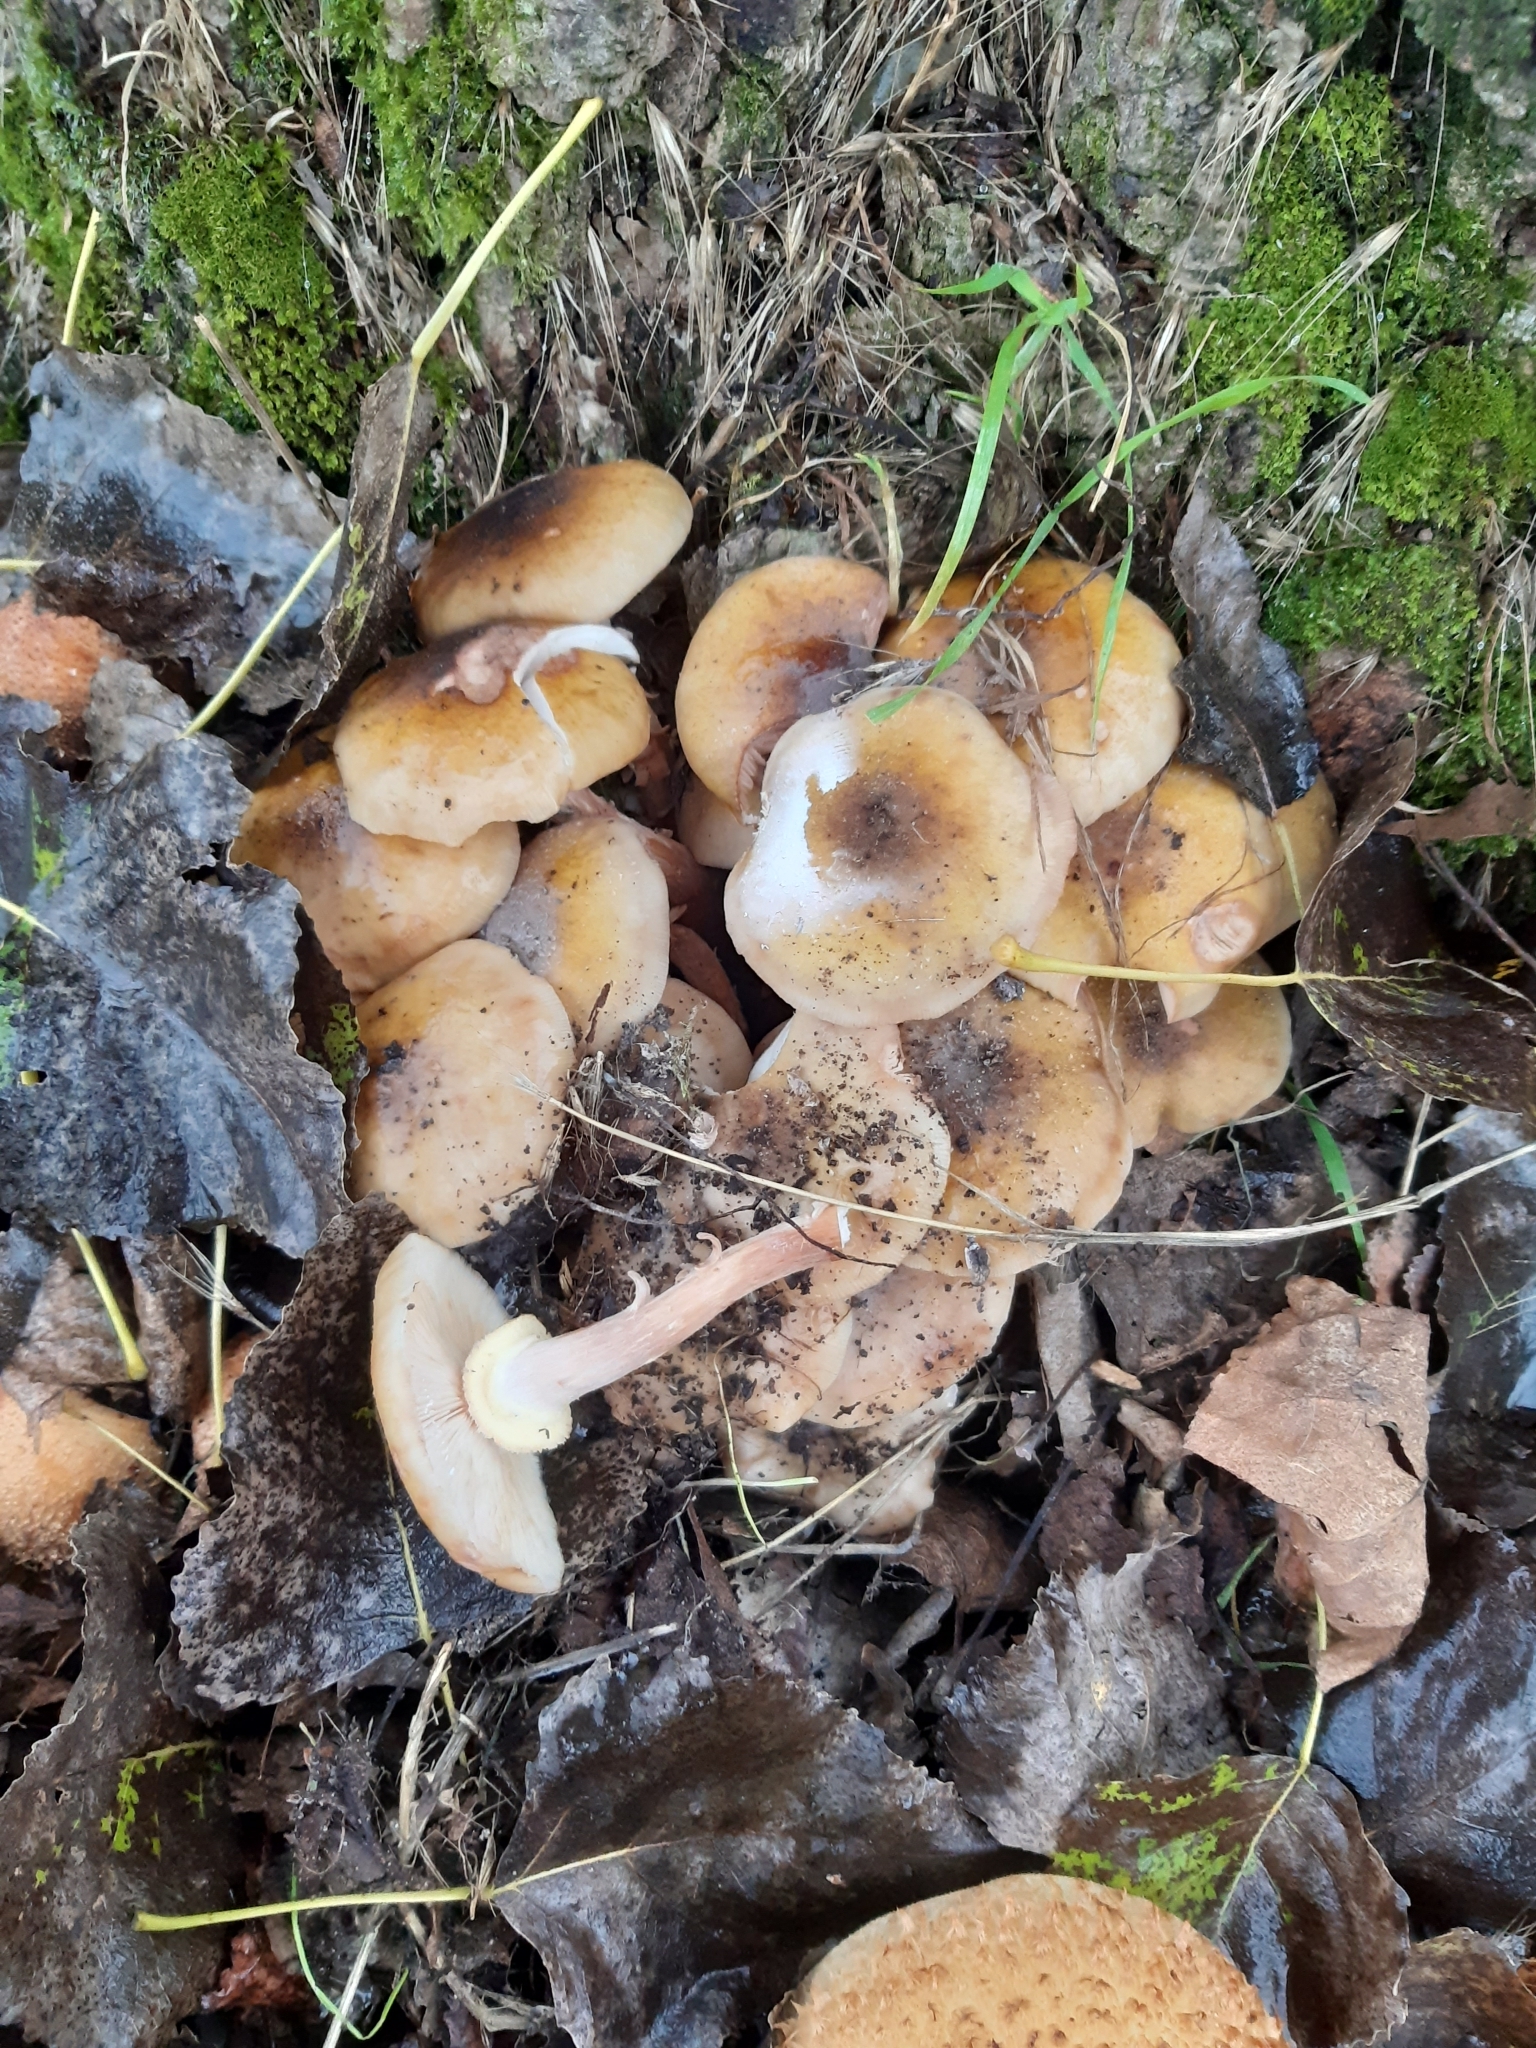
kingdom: Fungi
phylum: Basidiomycota
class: Agaricomycetes
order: Agaricales
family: Physalacriaceae
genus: Armillaria
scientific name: Armillaria mellea
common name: Honey fungus
